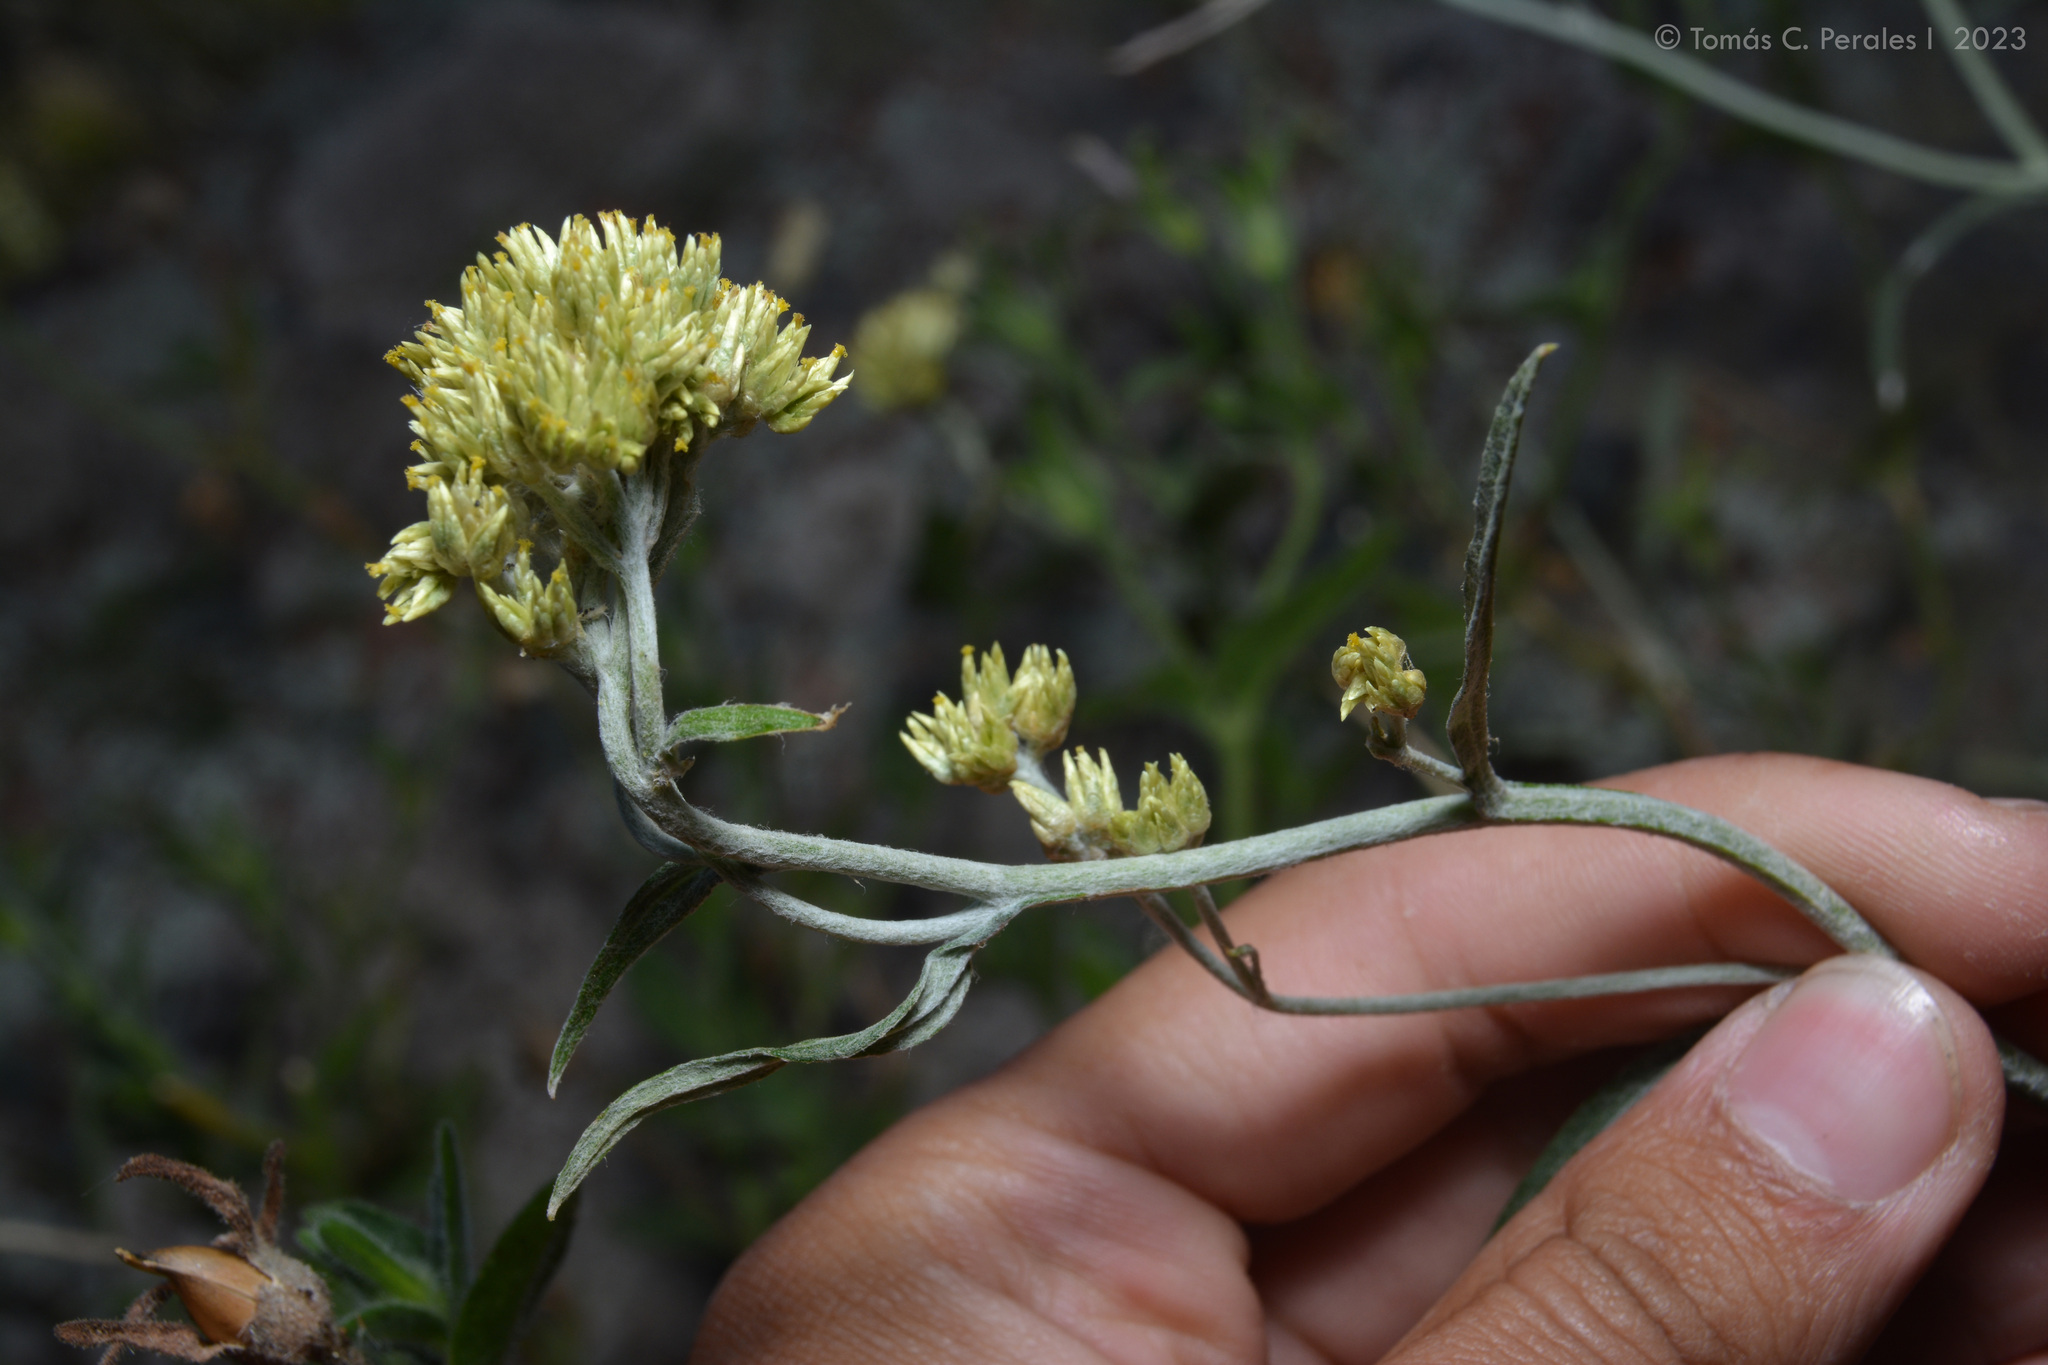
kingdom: Plantae
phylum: Tracheophyta
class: Magnoliopsida
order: Asterales
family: Asteraceae
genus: Achyrocline
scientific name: Achyrocline satureioides
